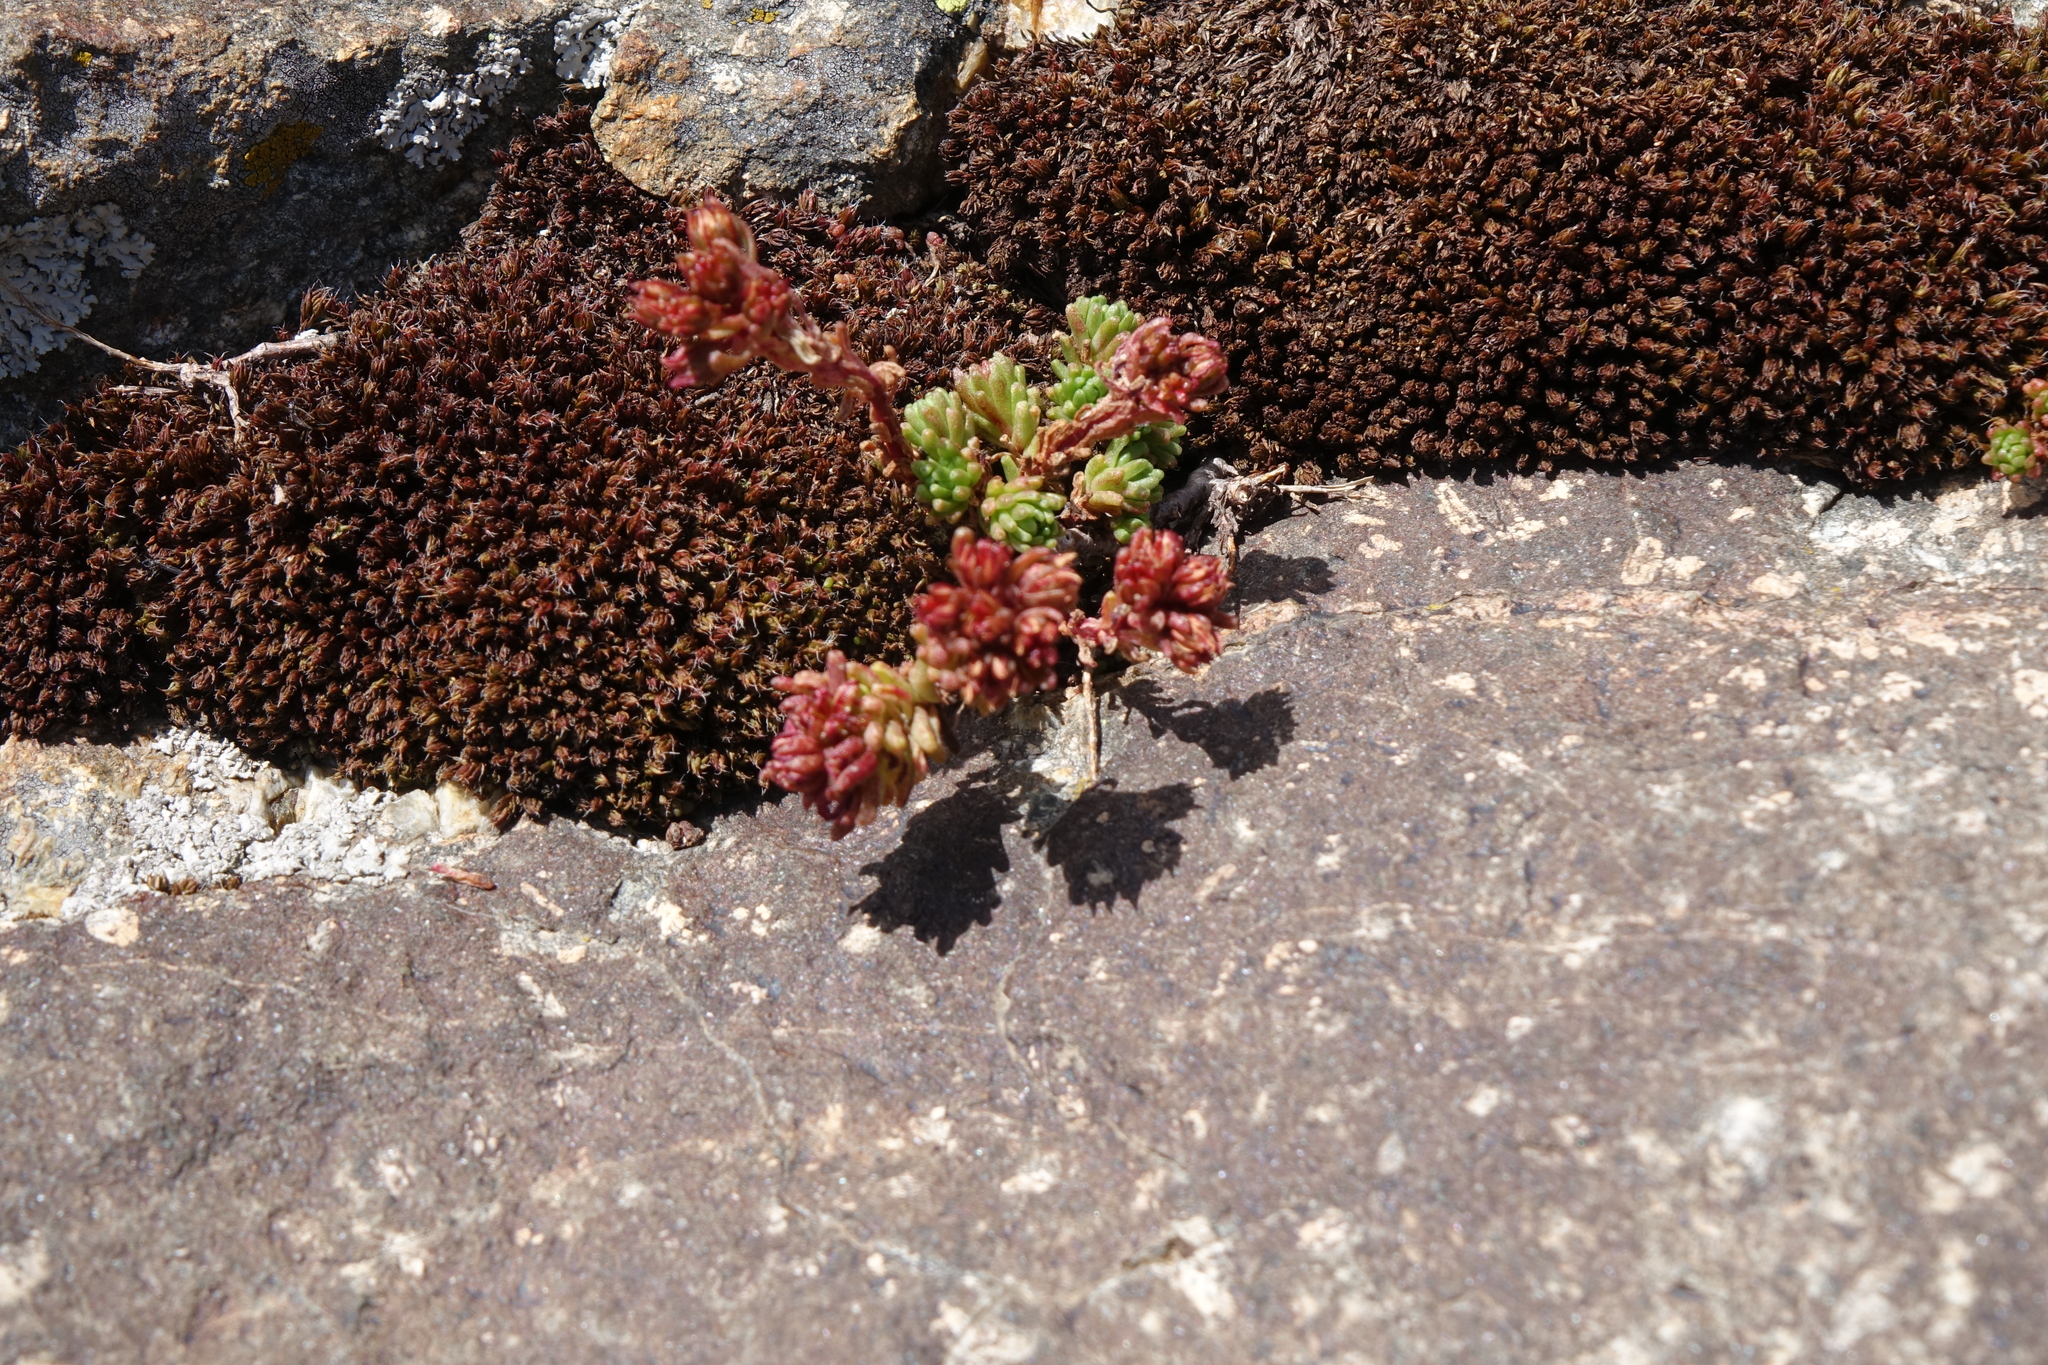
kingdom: Plantae
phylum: Tracheophyta
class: Magnoliopsida
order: Saxifragales
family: Crassulaceae
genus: Sedum
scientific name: Sedum tenellum
